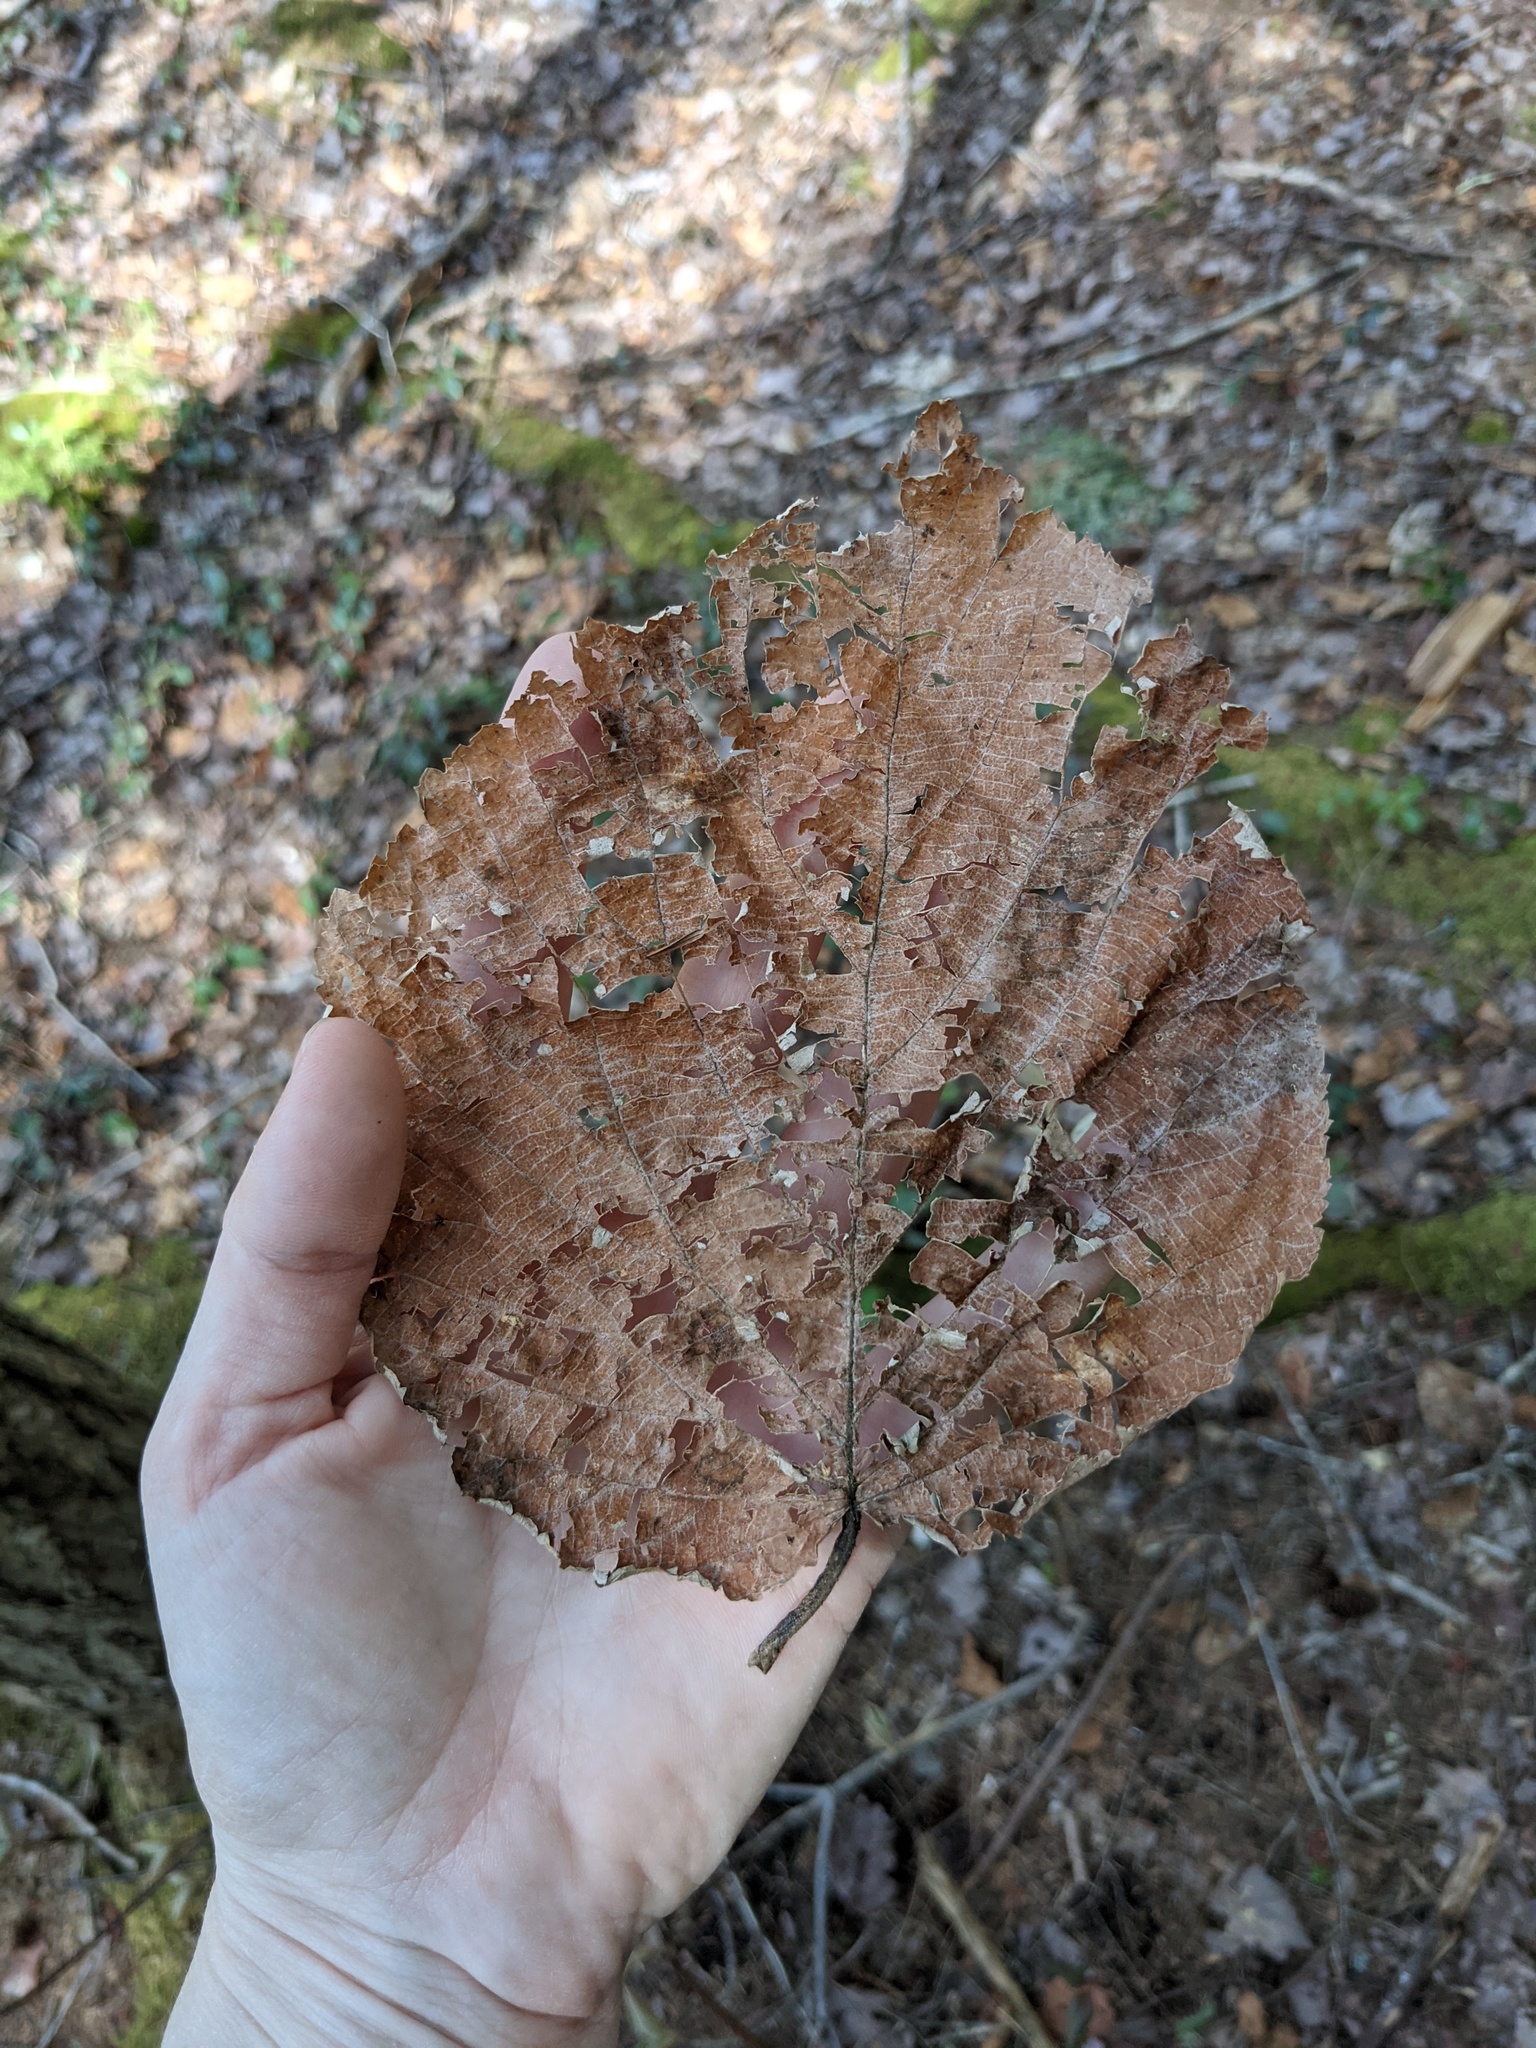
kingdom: Plantae
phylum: Tracheophyta
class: Magnoliopsida
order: Malvales
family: Malvaceae
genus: Tilia
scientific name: Tilia americana
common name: Basswood
